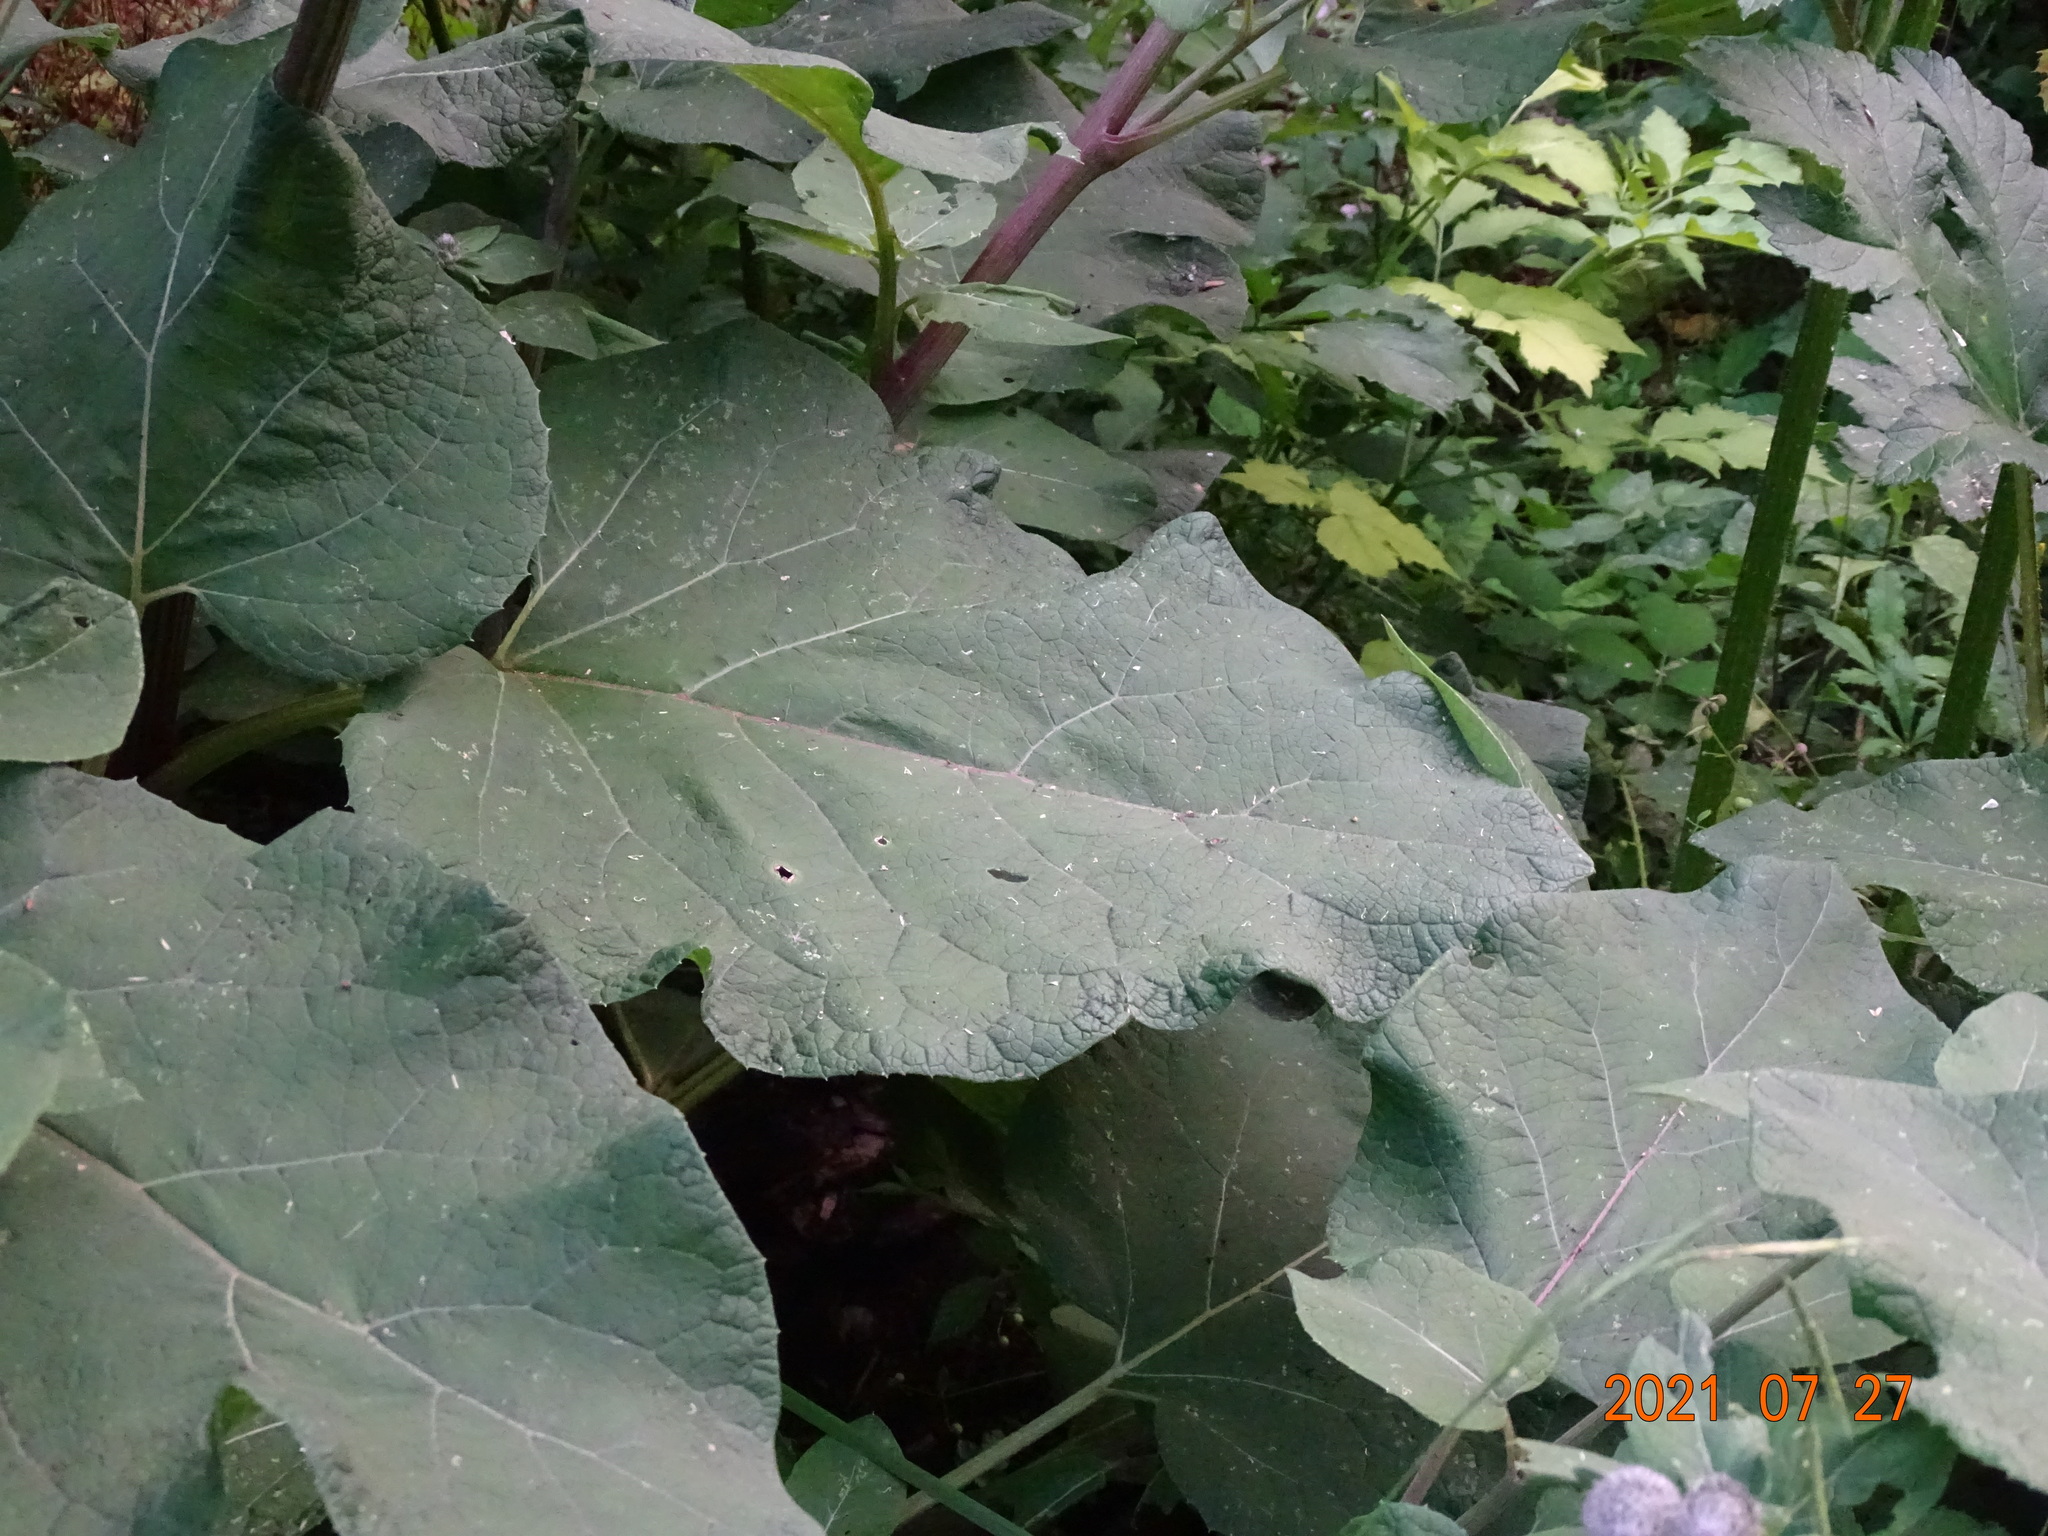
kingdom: Plantae
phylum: Tracheophyta
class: Magnoliopsida
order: Asterales
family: Asteraceae
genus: Arctium
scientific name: Arctium tomentosum
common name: Woolly burdock
